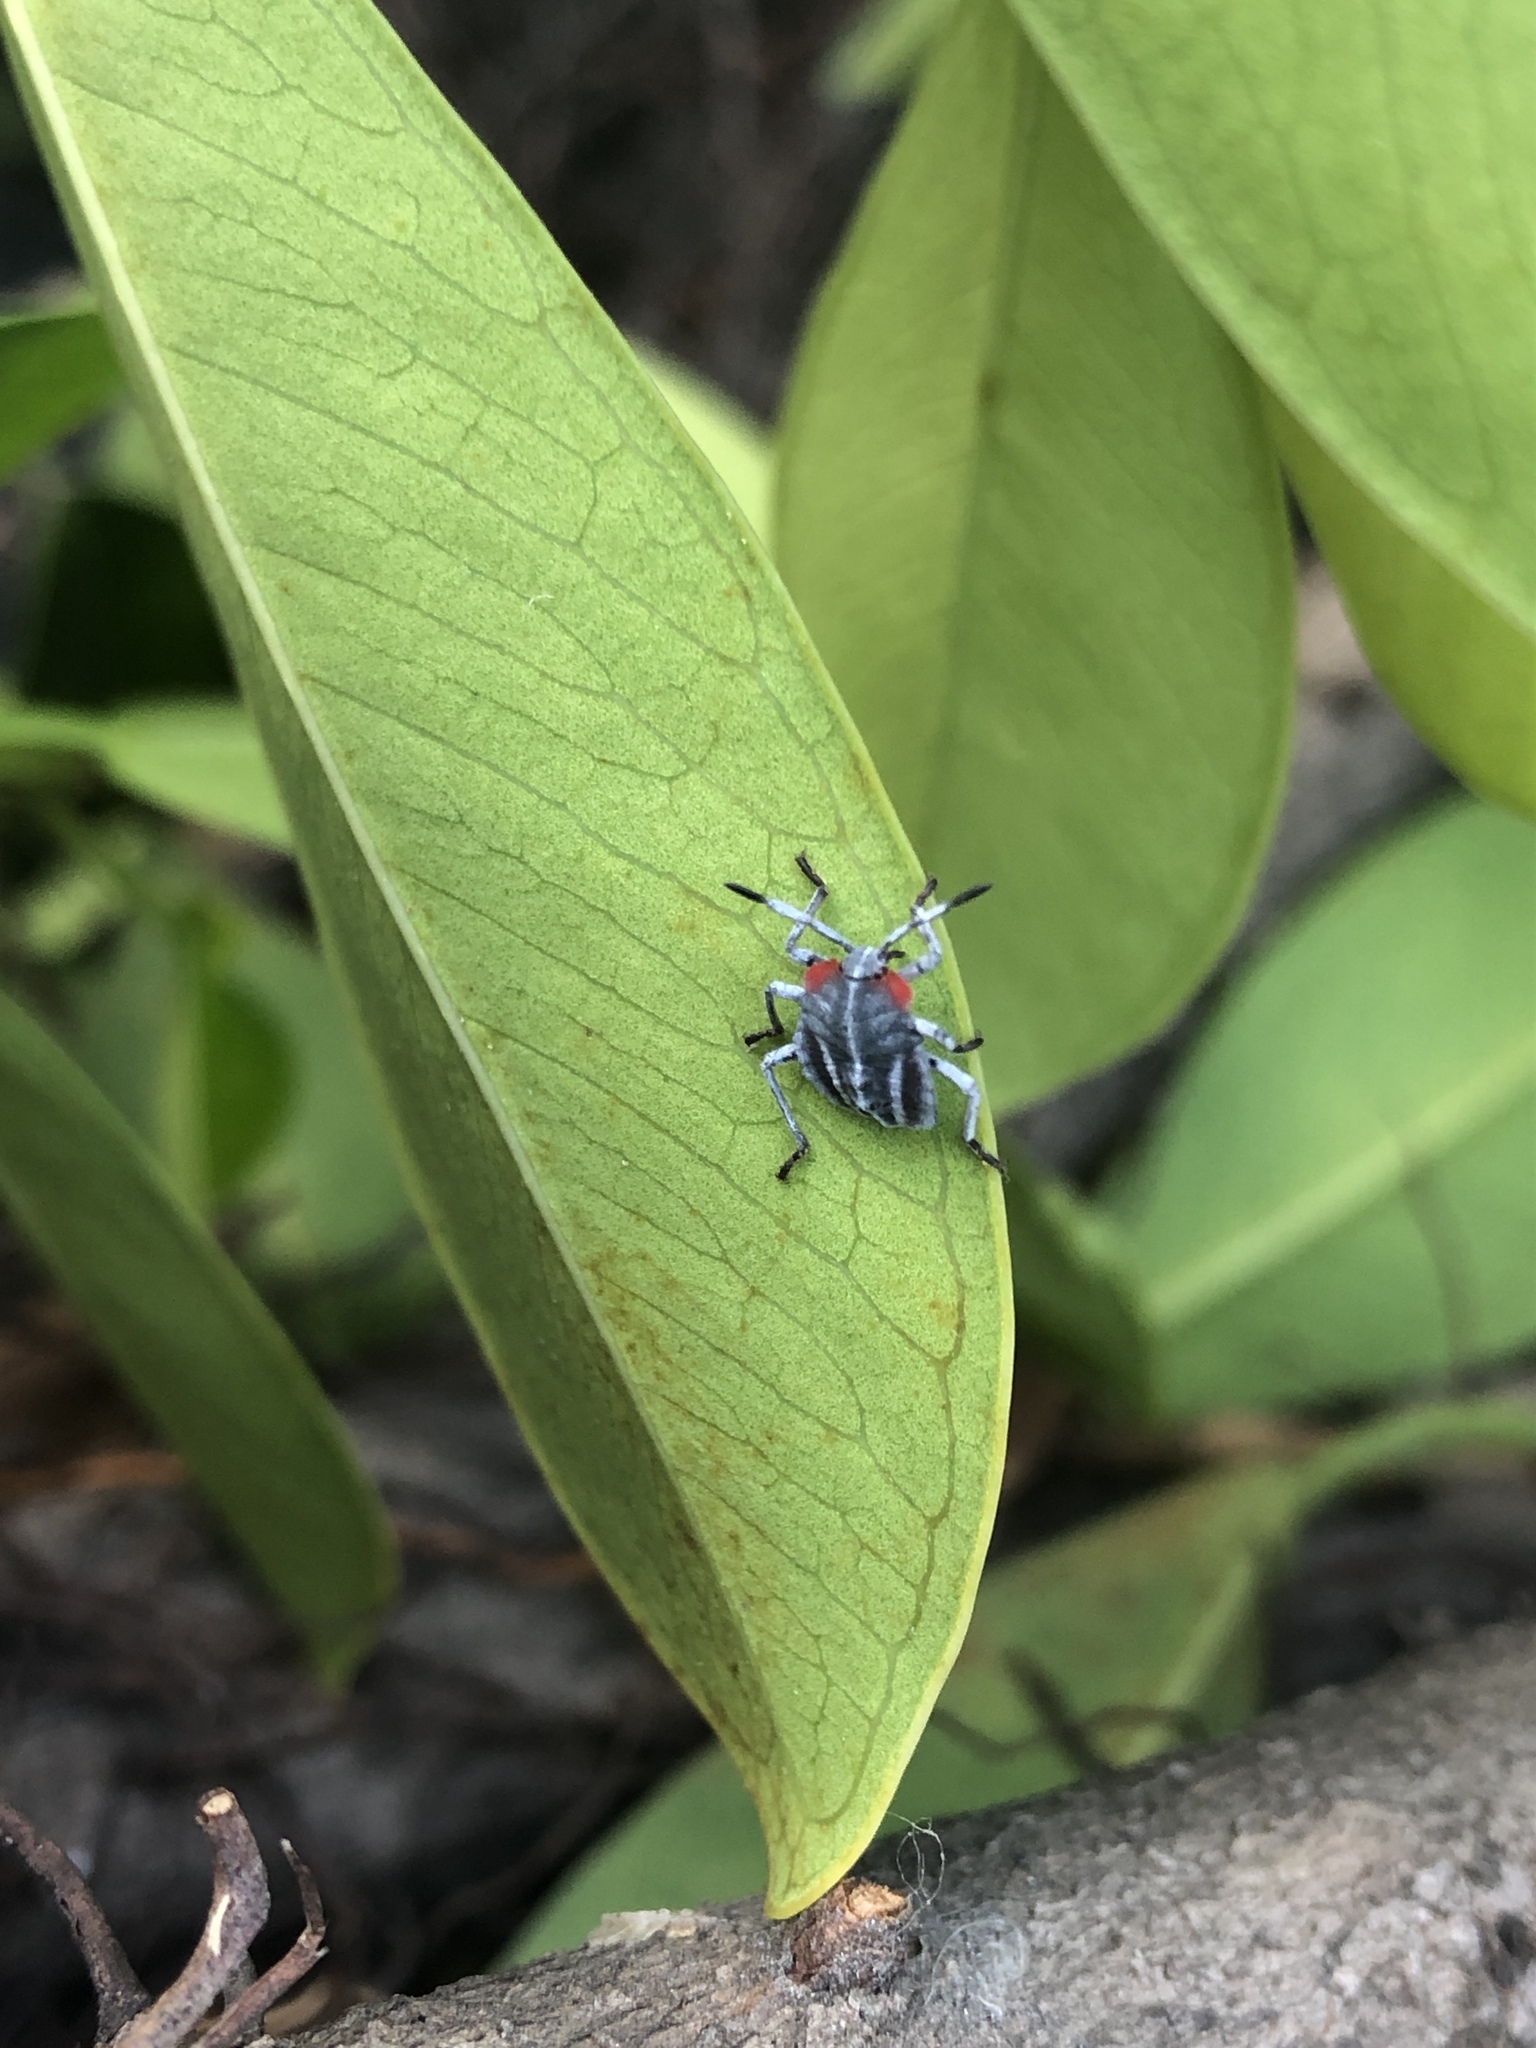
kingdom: Animalia
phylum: Arthropoda
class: Insecta
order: Hemiptera
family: Tessaratomidae
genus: Tessaratoma
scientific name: Tessaratoma papillosa
